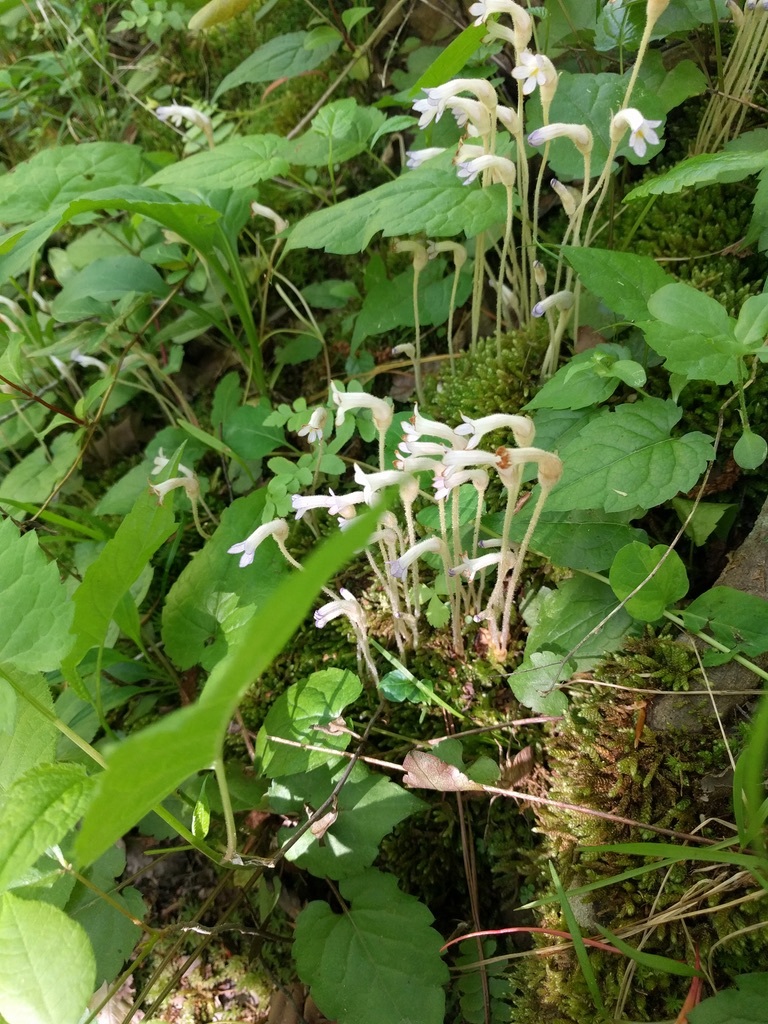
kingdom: Plantae
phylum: Tracheophyta
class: Magnoliopsida
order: Lamiales
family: Orobanchaceae
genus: Aphyllon
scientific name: Aphyllon uniflorum
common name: One-flowered broomrape
